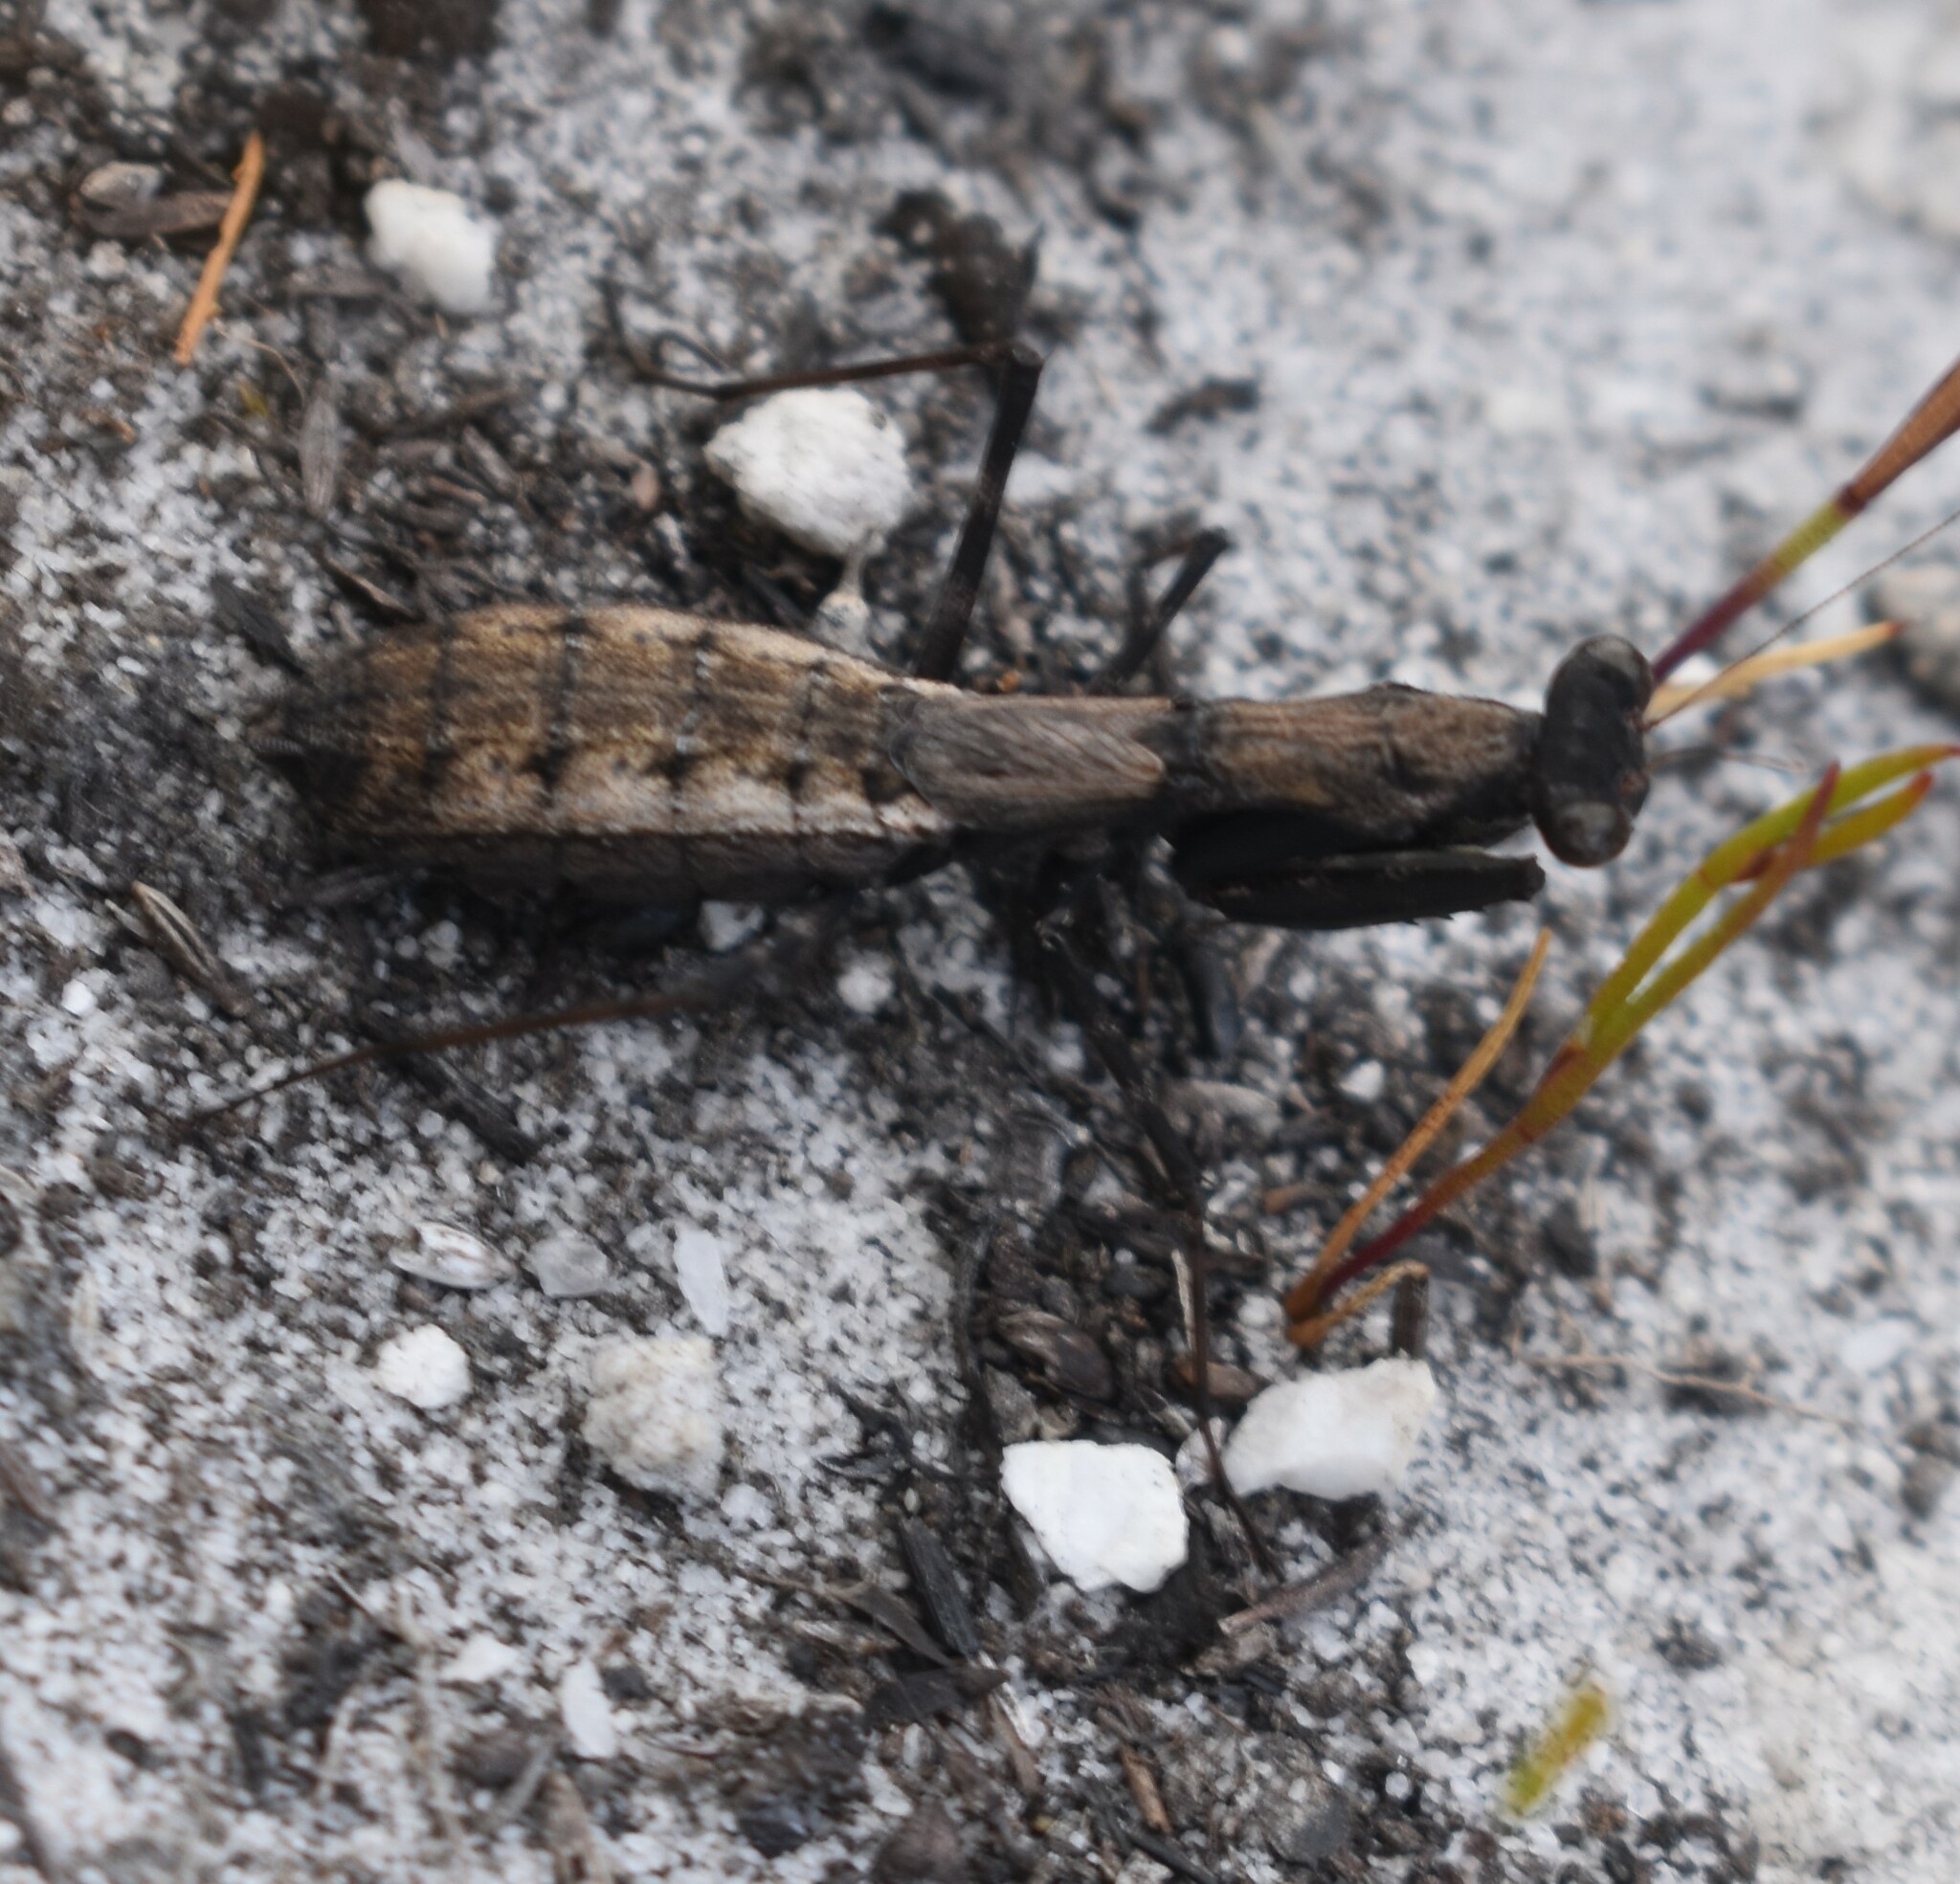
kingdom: Animalia
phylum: Arthropoda
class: Insecta
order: Mantodea
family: Chroicopteridae
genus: Ligariella
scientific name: Ligariella gracilis
